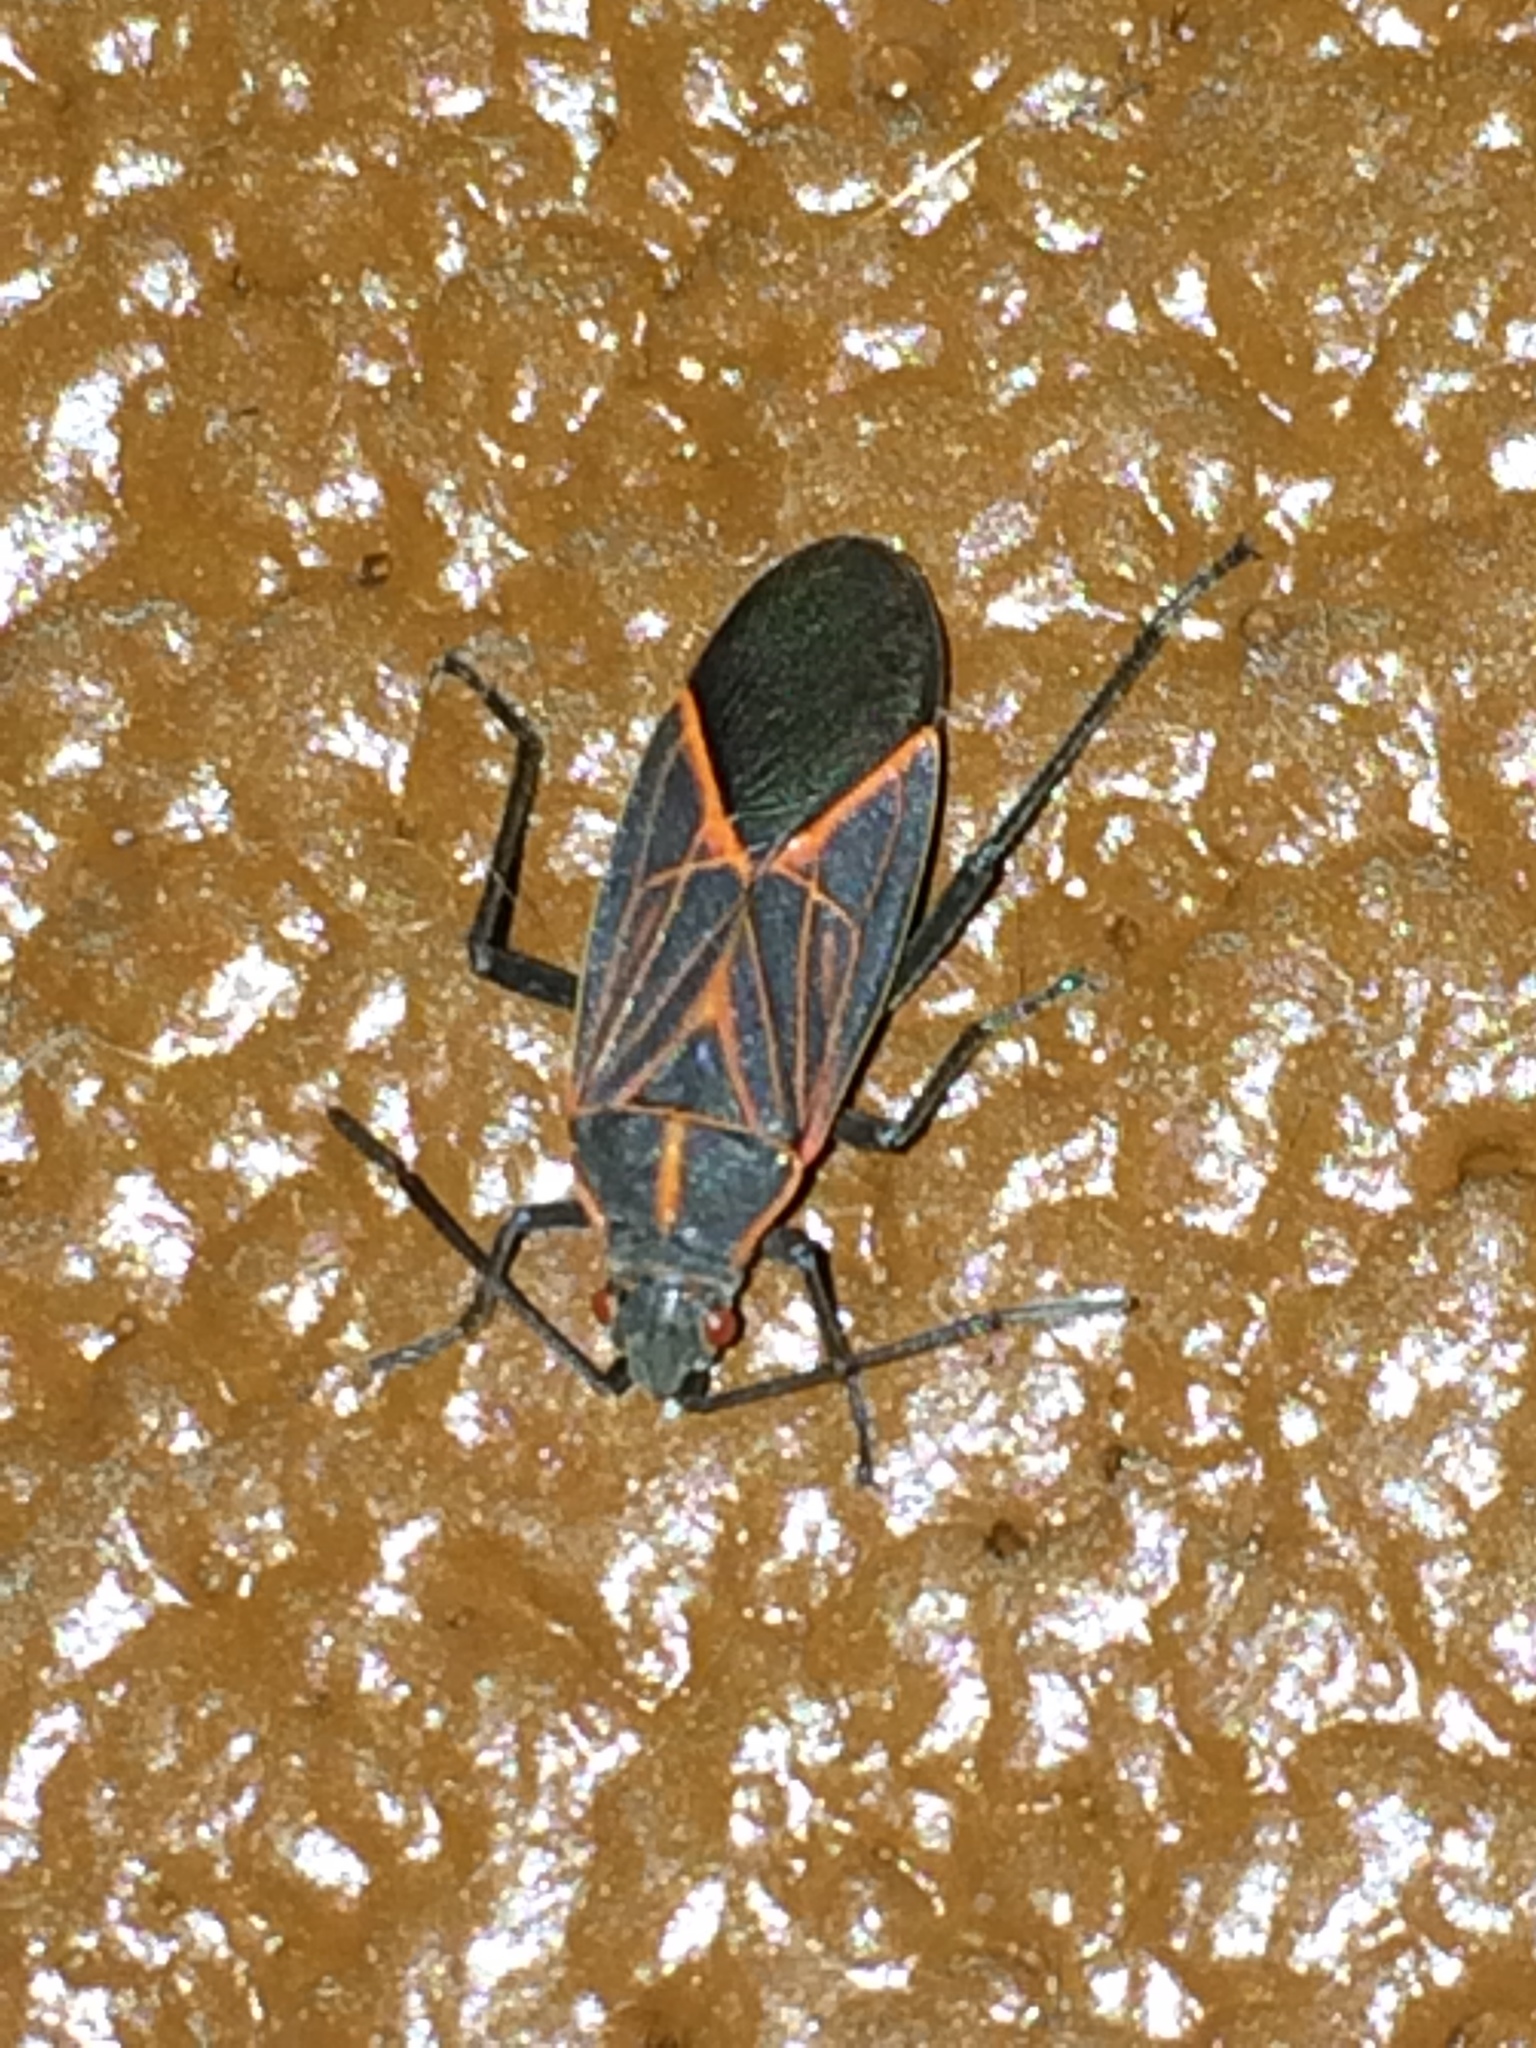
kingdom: Animalia
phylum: Arthropoda
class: Insecta
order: Hemiptera
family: Rhopalidae
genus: Boisea
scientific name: Boisea rubrolineata
